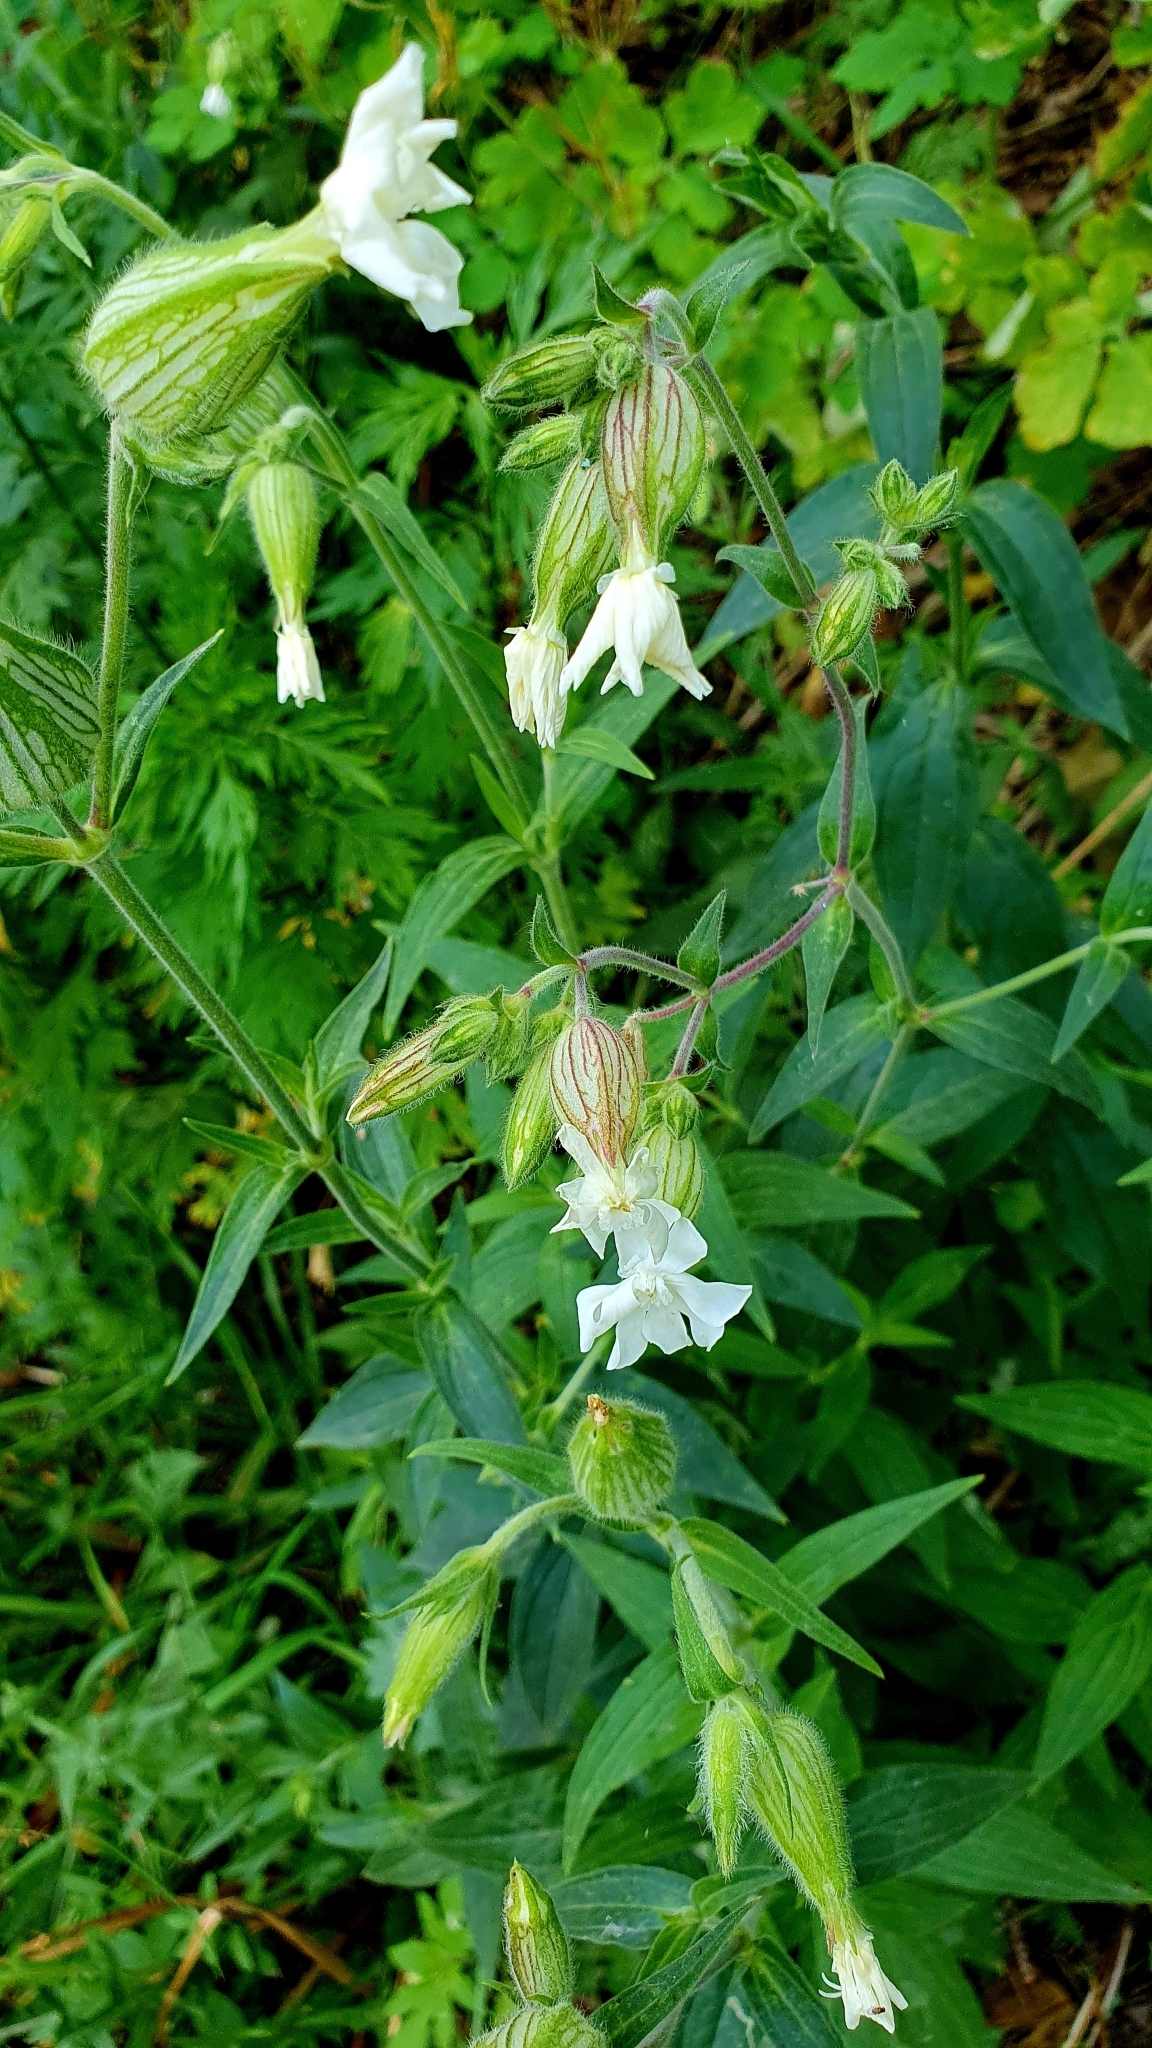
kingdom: Plantae
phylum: Tracheophyta
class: Magnoliopsida
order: Caryophyllales
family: Caryophyllaceae
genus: Silene
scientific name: Silene latifolia
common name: White campion
